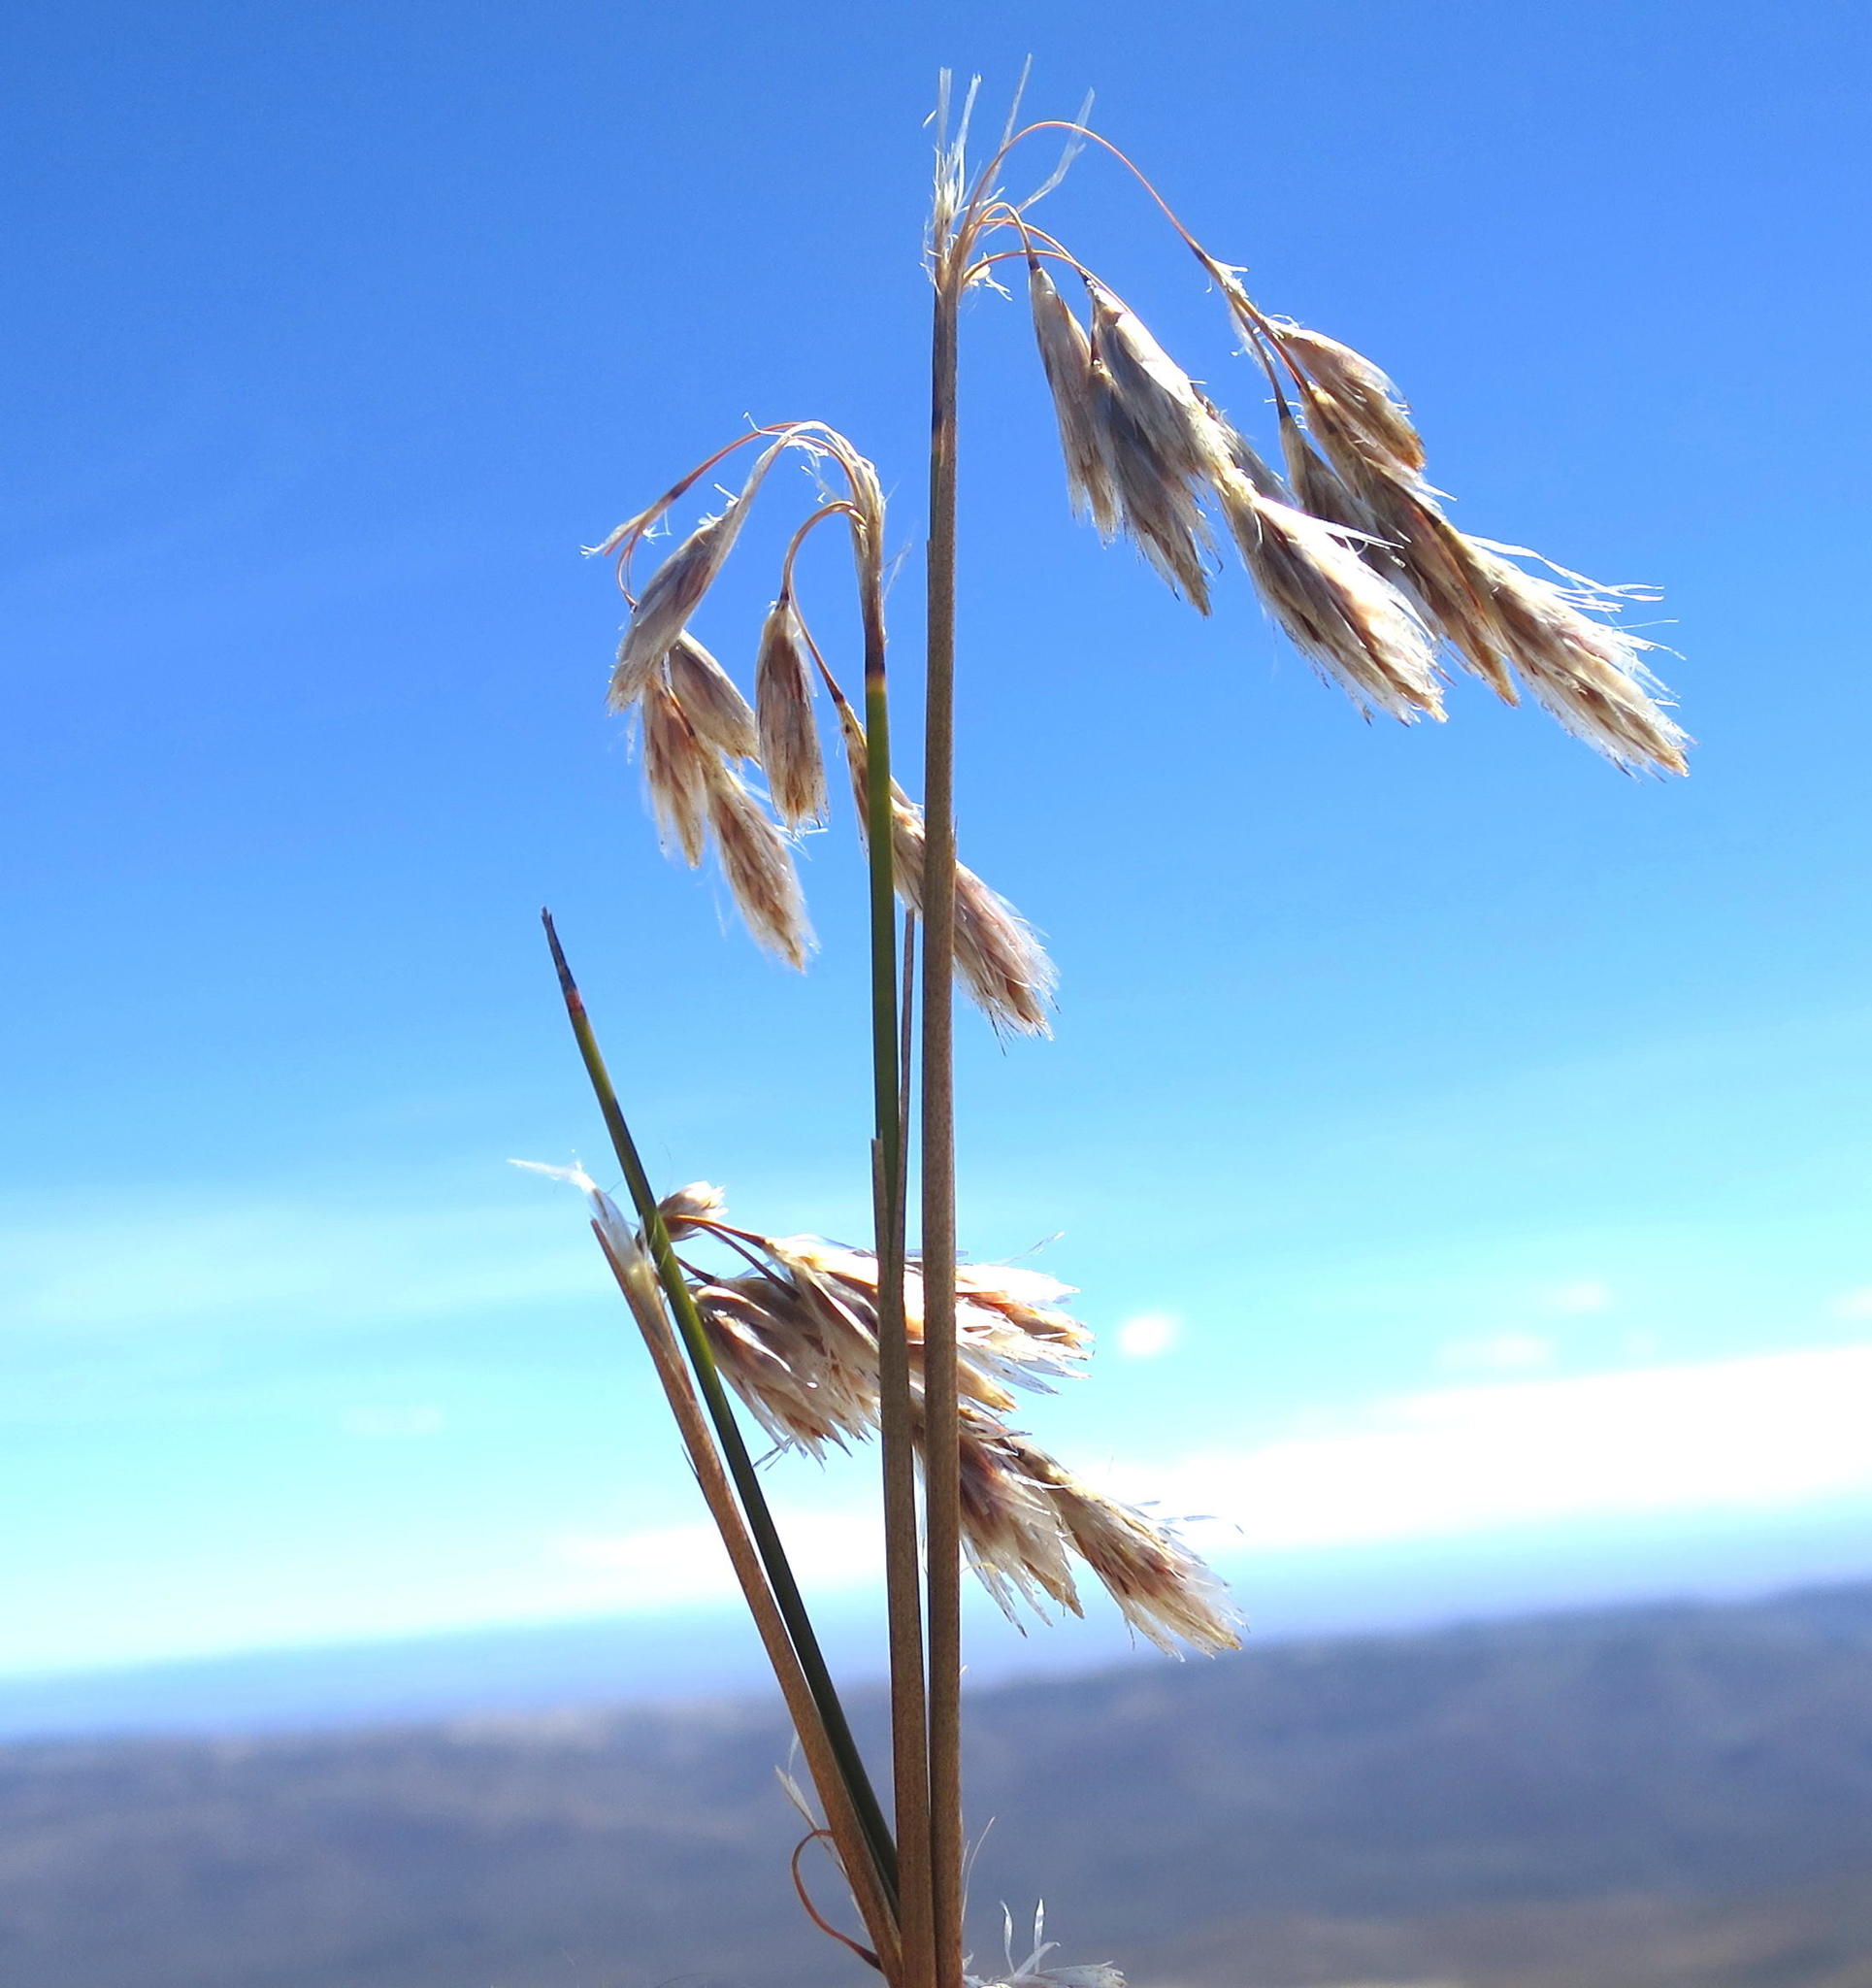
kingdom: Plantae
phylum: Tracheophyta
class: Liliopsida
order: Poales
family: Restionaceae
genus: Thamnochortus
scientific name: Thamnochortus papyraceus
